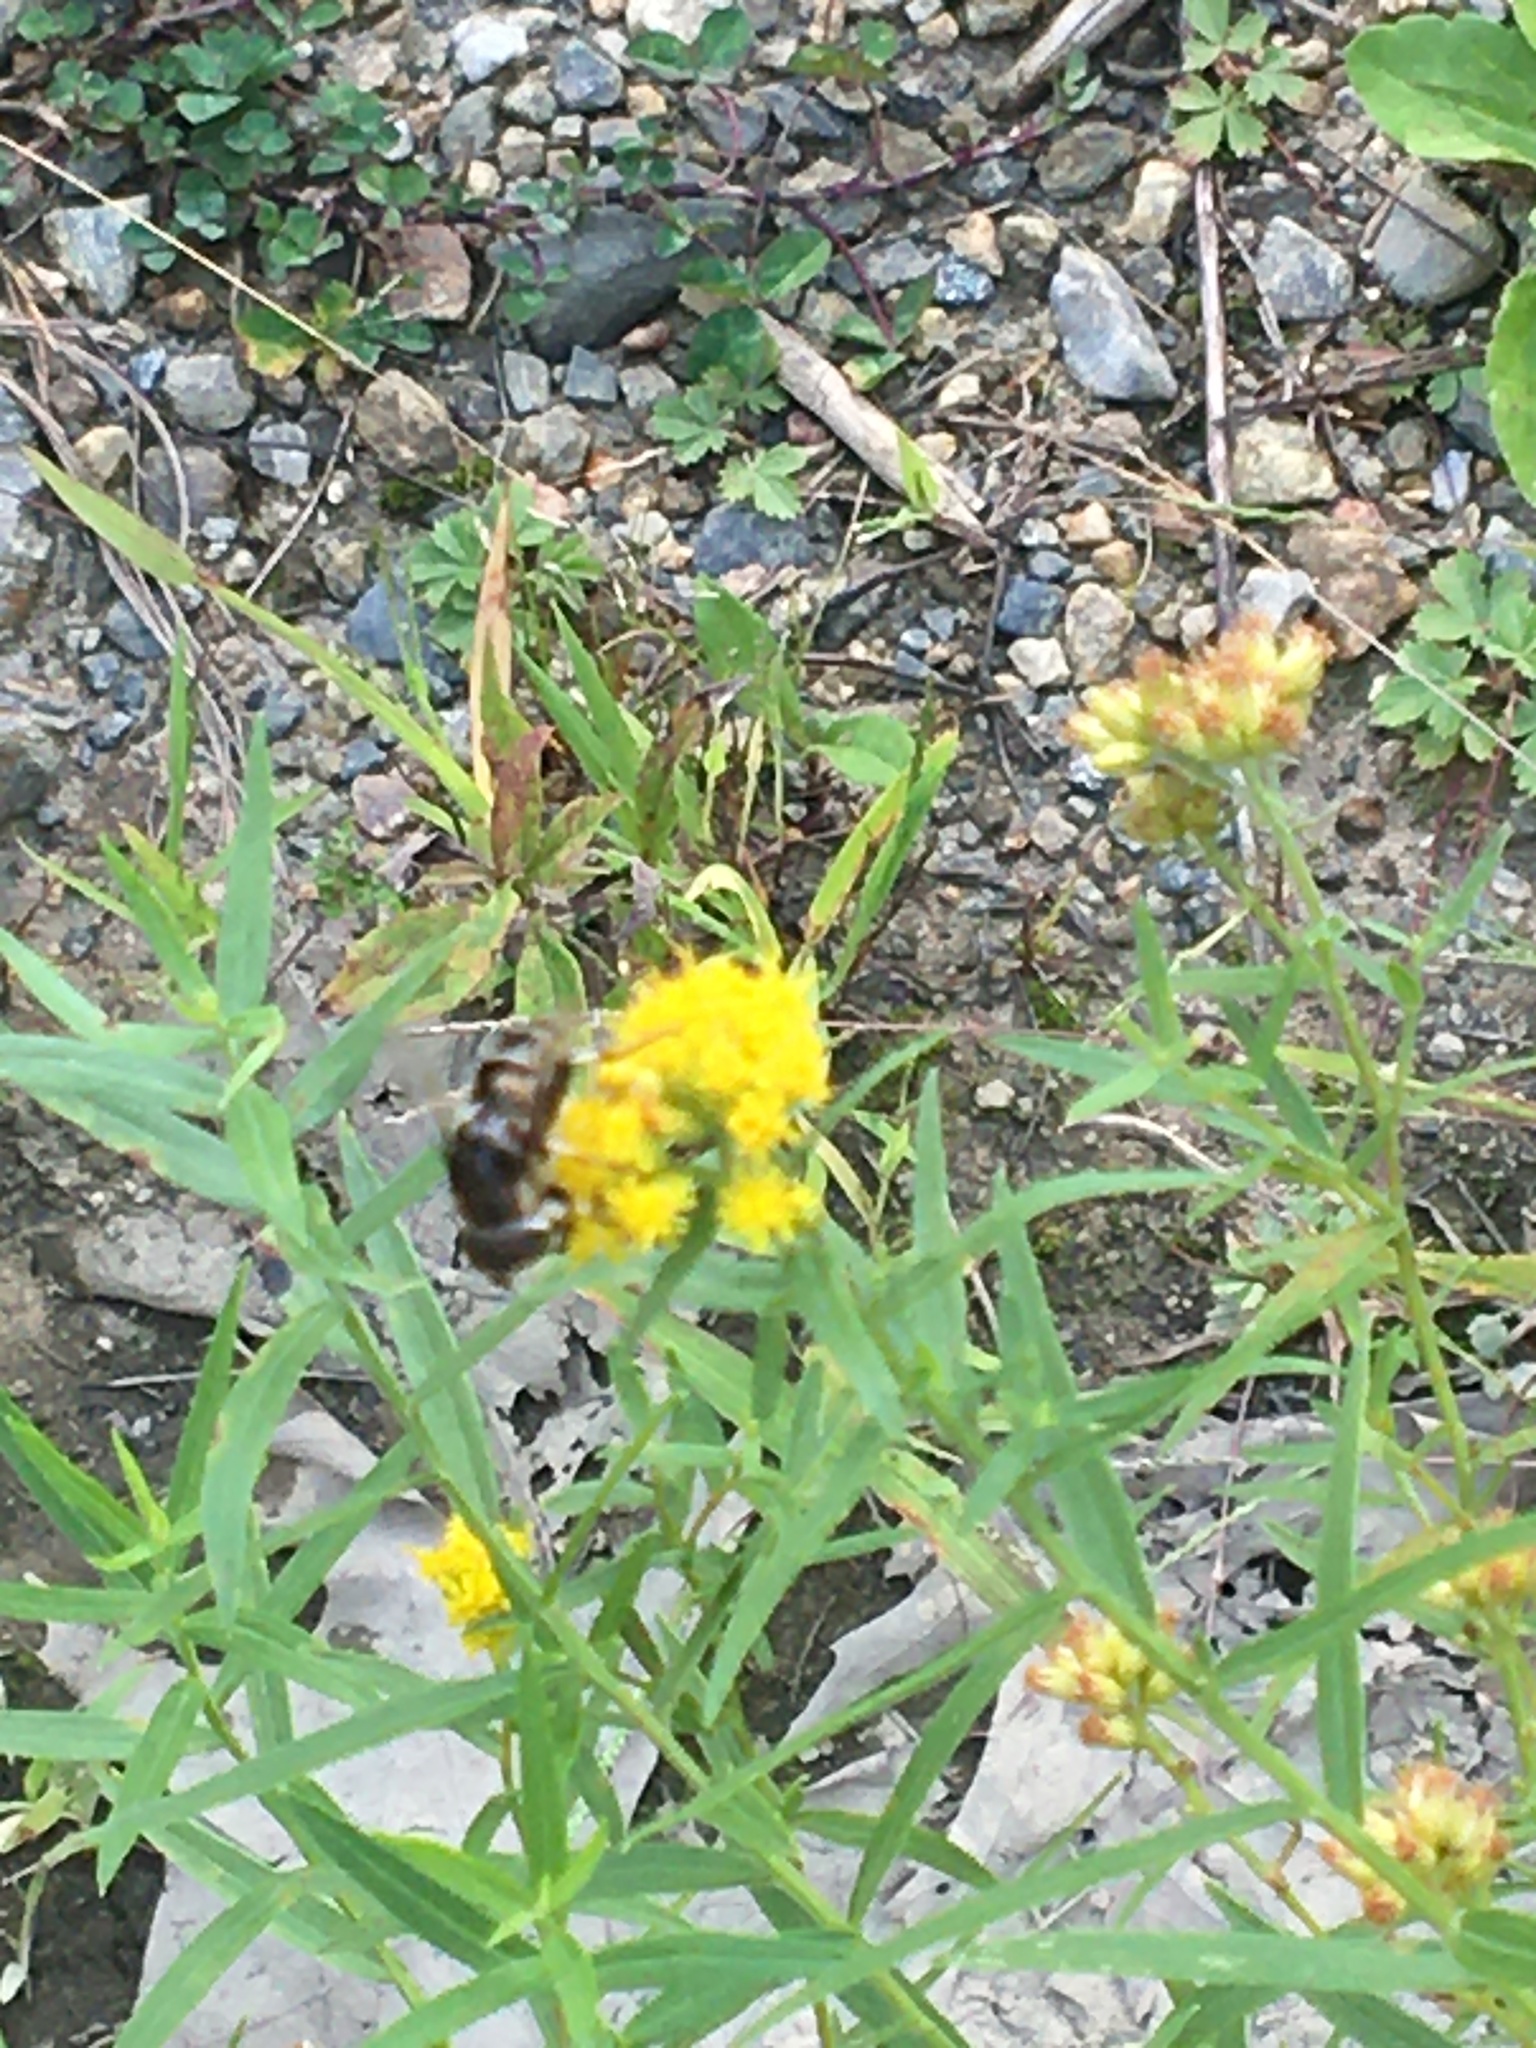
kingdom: Animalia
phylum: Arthropoda
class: Insecta
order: Diptera
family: Syrphidae
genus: Eristalis
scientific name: Eristalis dimidiata
